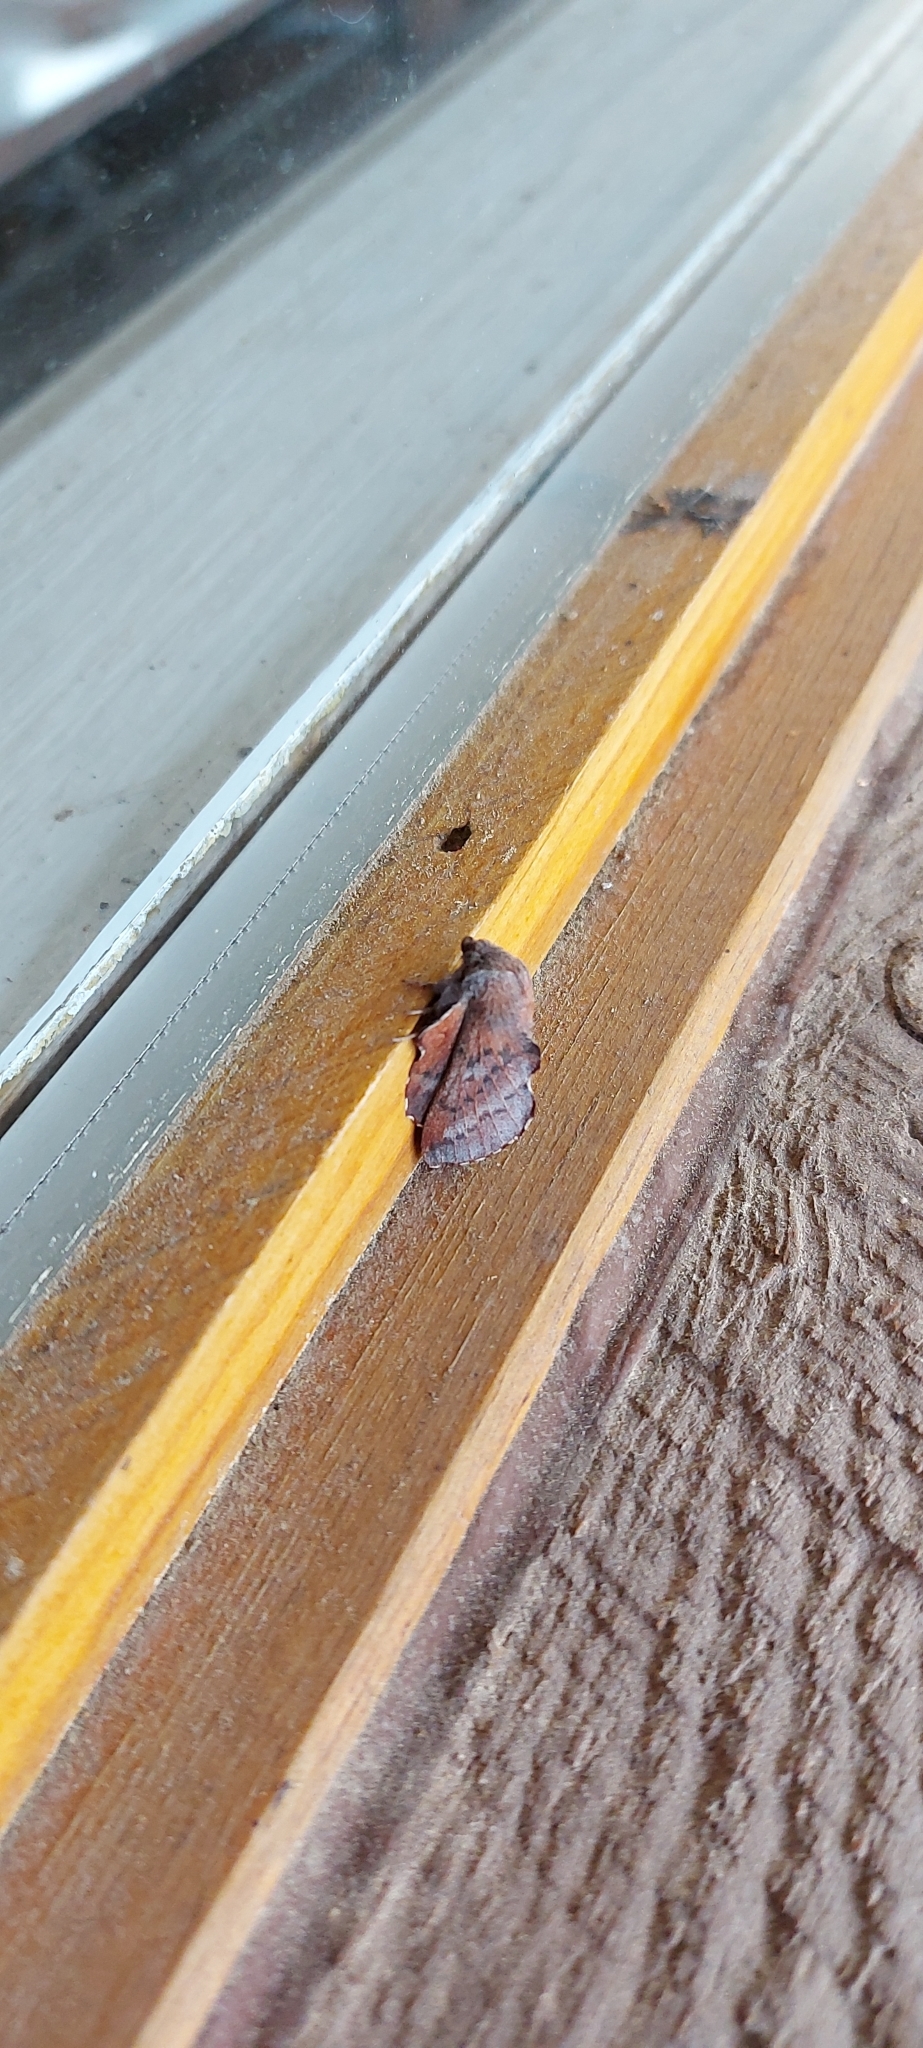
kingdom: Animalia
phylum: Arthropoda
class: Insecta
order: Lepidoptera
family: Lasiocampidae
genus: Phyllodesma
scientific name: Phyllodesma americana
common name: American lappet moth
